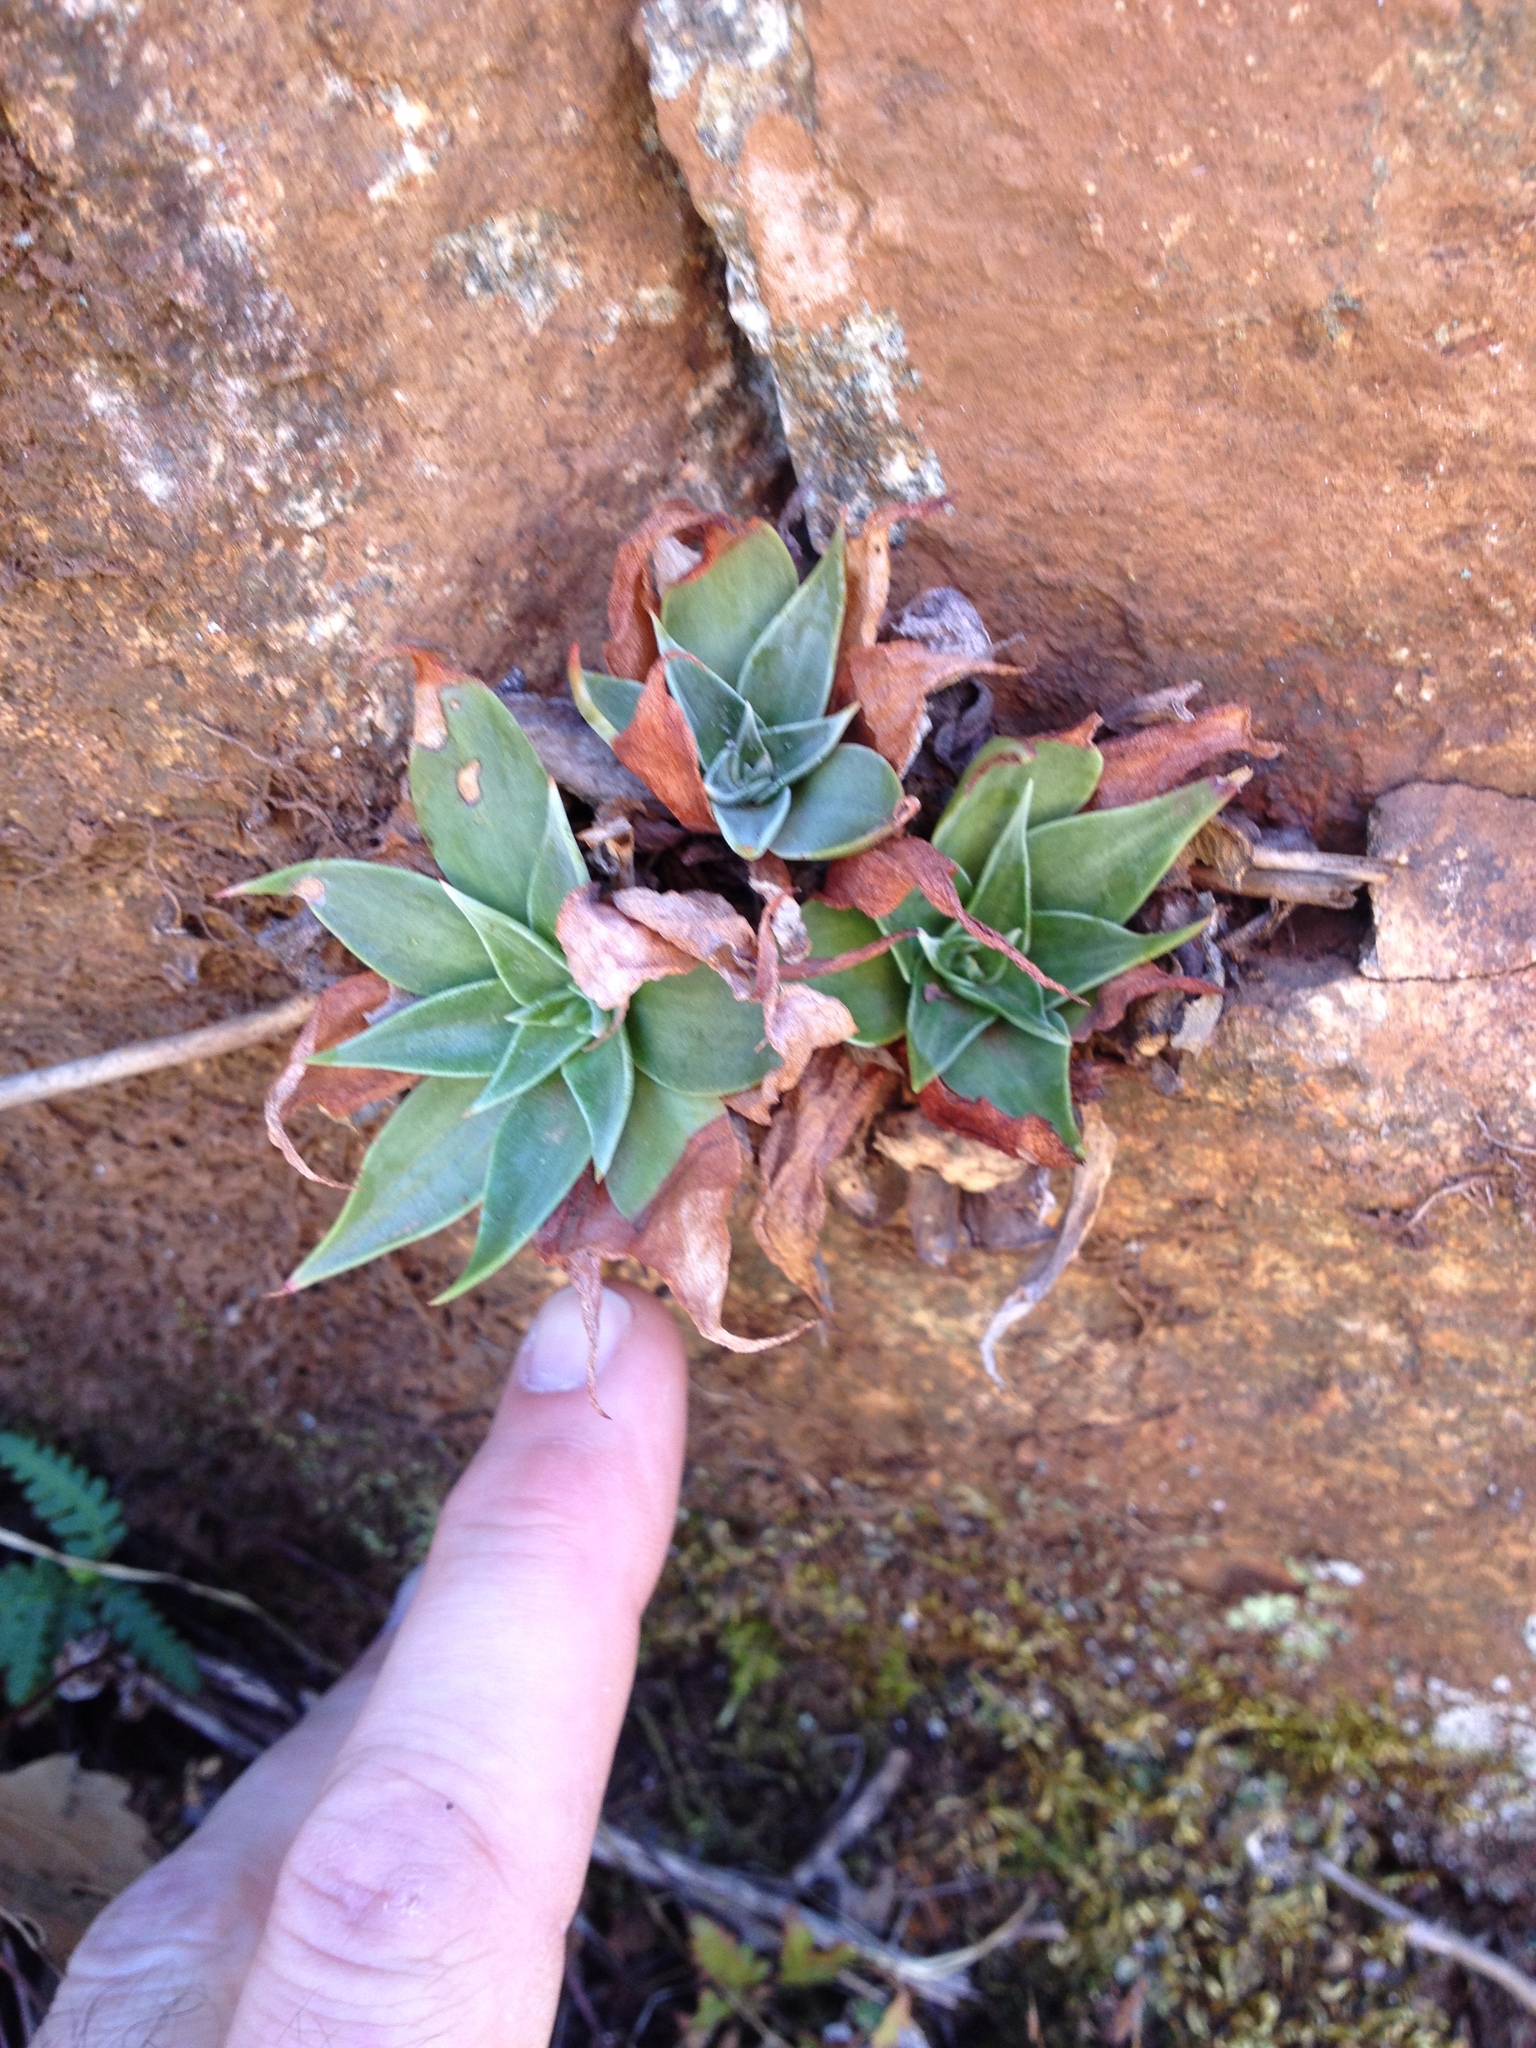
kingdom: Plantae
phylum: Tracheophyta
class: Magnoliopsida
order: Saxifragales
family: Crassulaceae
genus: Dudleya
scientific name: Dudleya cymosa
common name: Canyon dudleya
